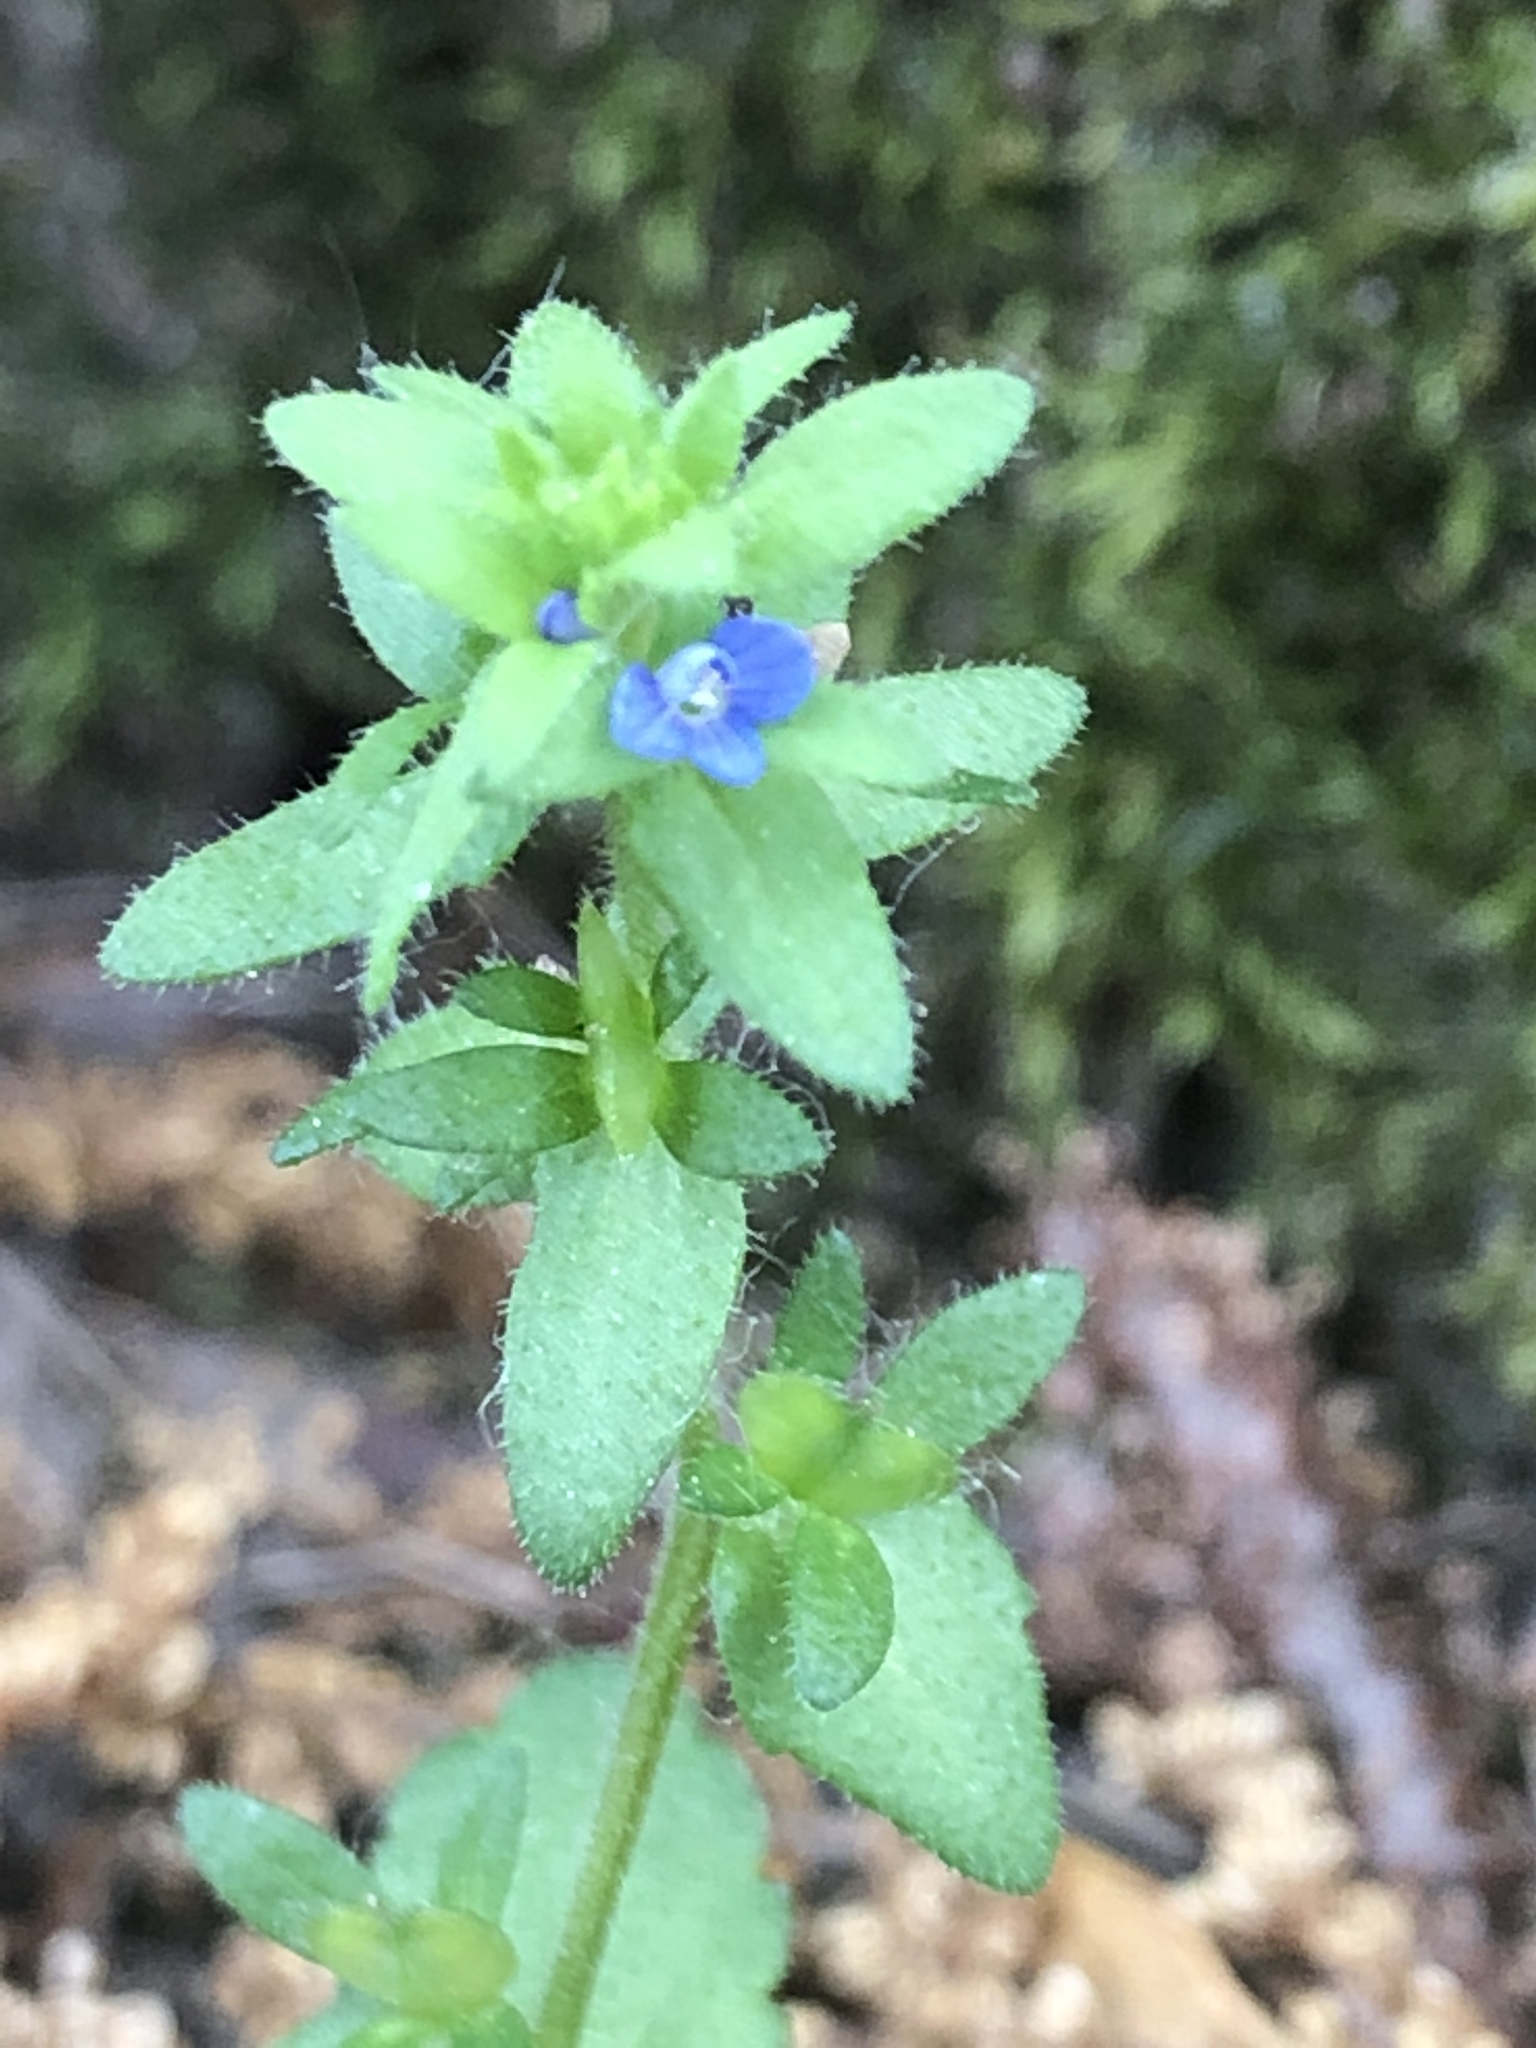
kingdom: Plantae
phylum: Tracheophyta
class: Magnoliopsida
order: Lamiales
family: Plantaginaceae
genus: Veronica
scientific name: Veronica arvensis
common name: Corn speedwell
